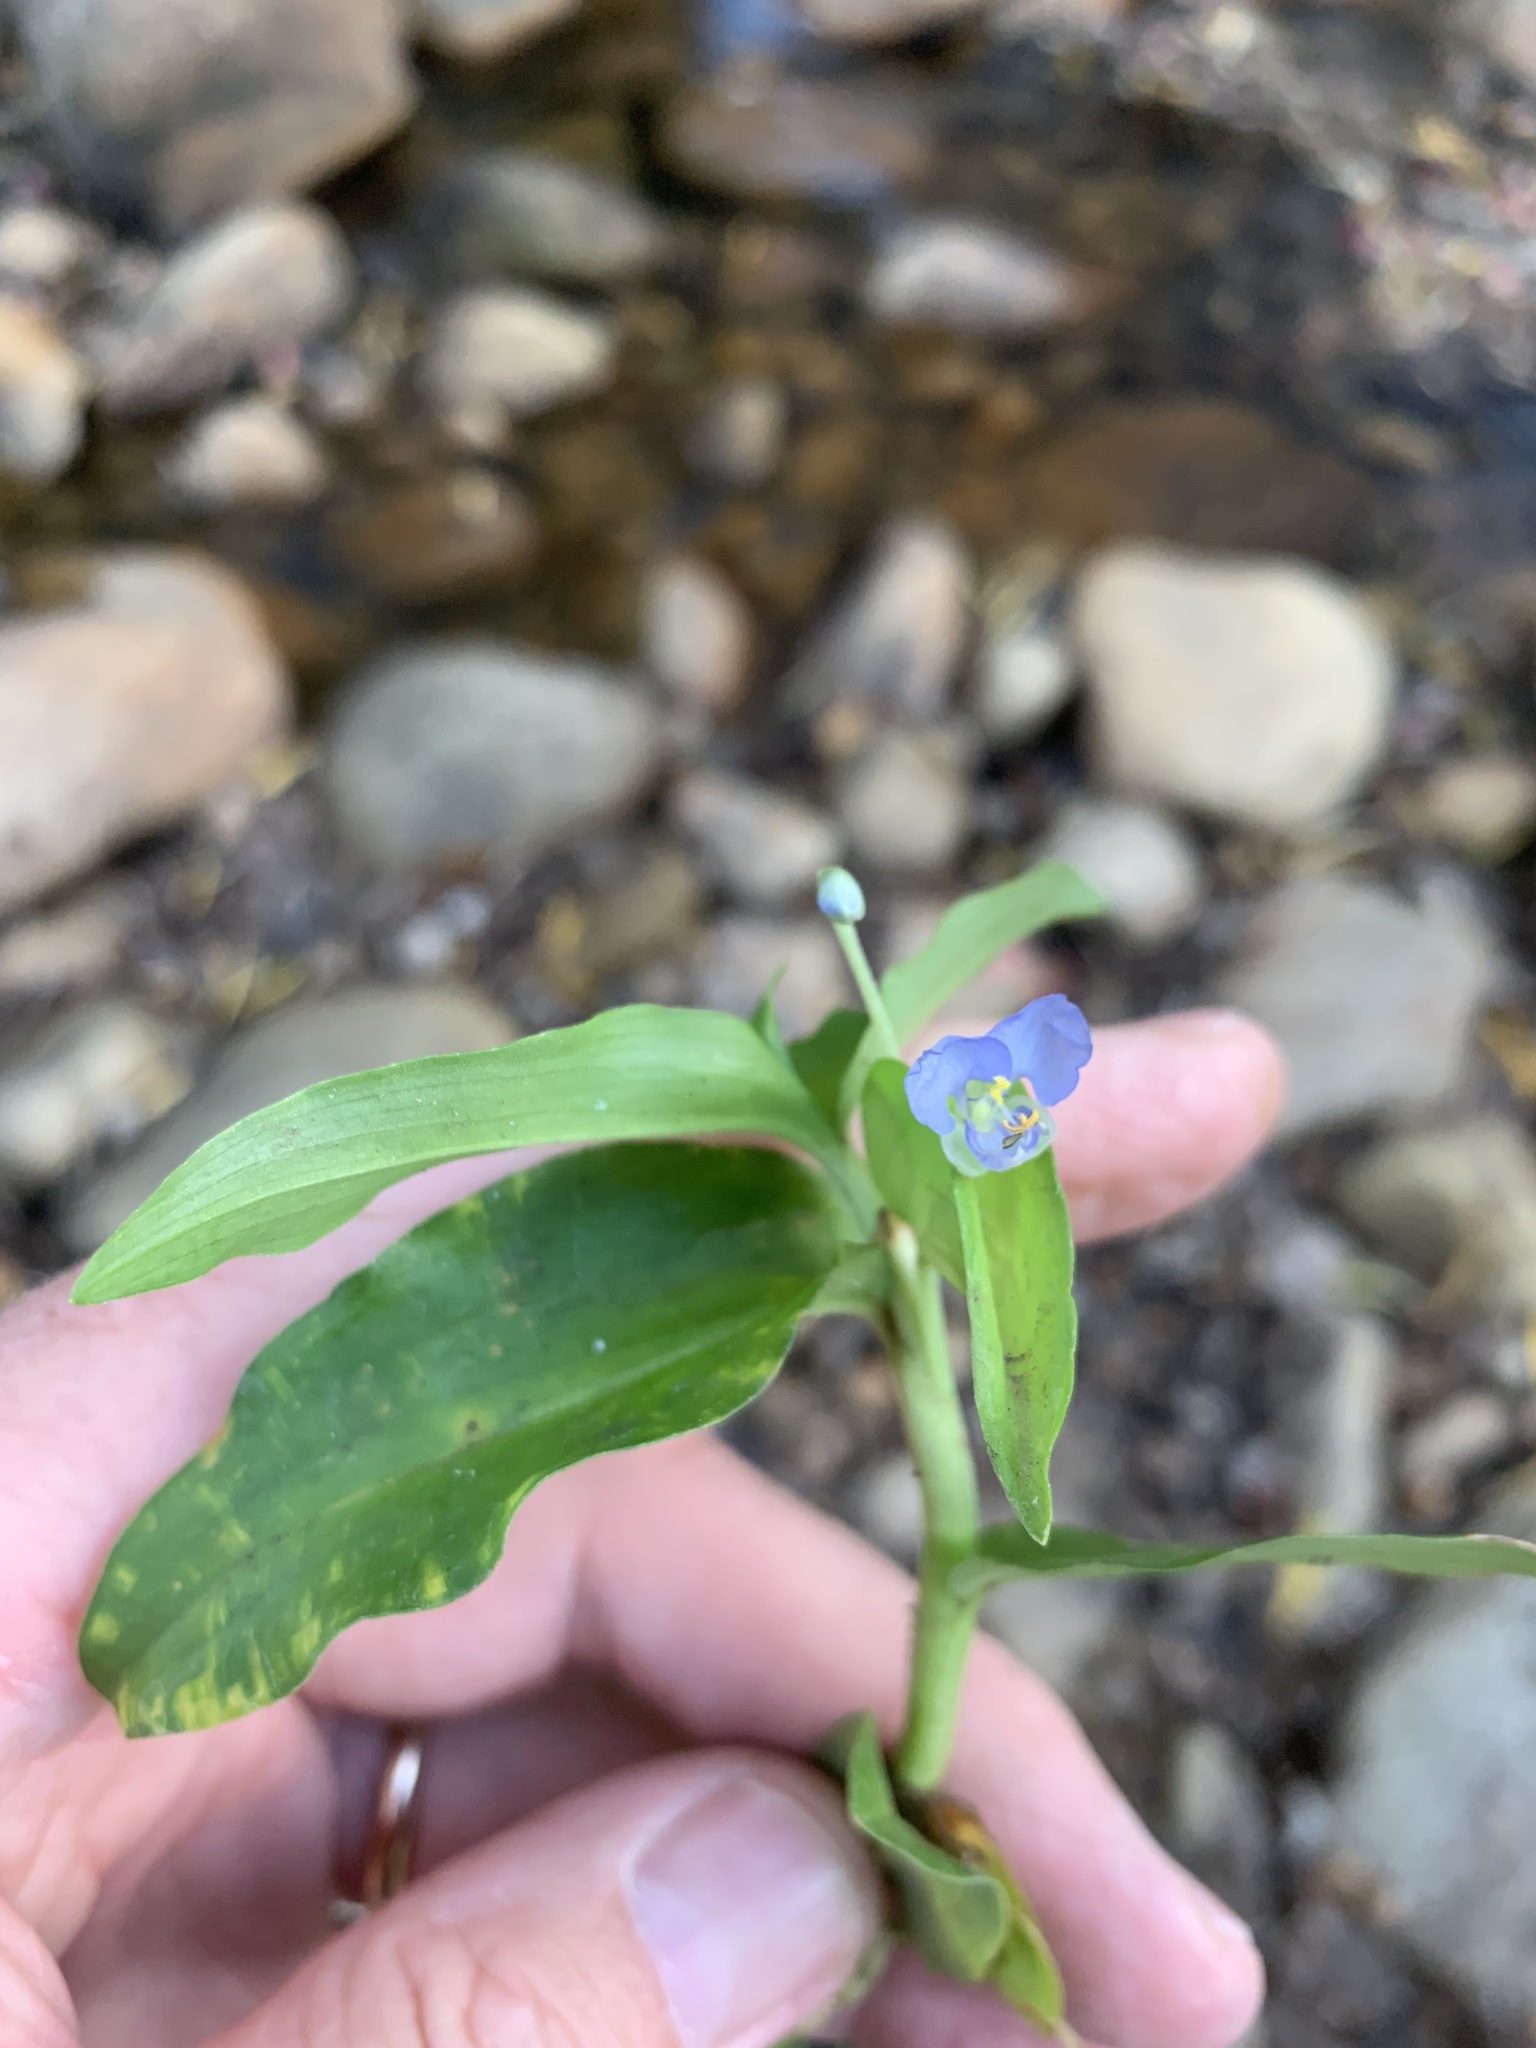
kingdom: Plantae
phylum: Tracheophyta
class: Liliopsida
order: Commelinales
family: Commelinaceae
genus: Commelina
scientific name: Commelina diffusa
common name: Climbing dayflower
